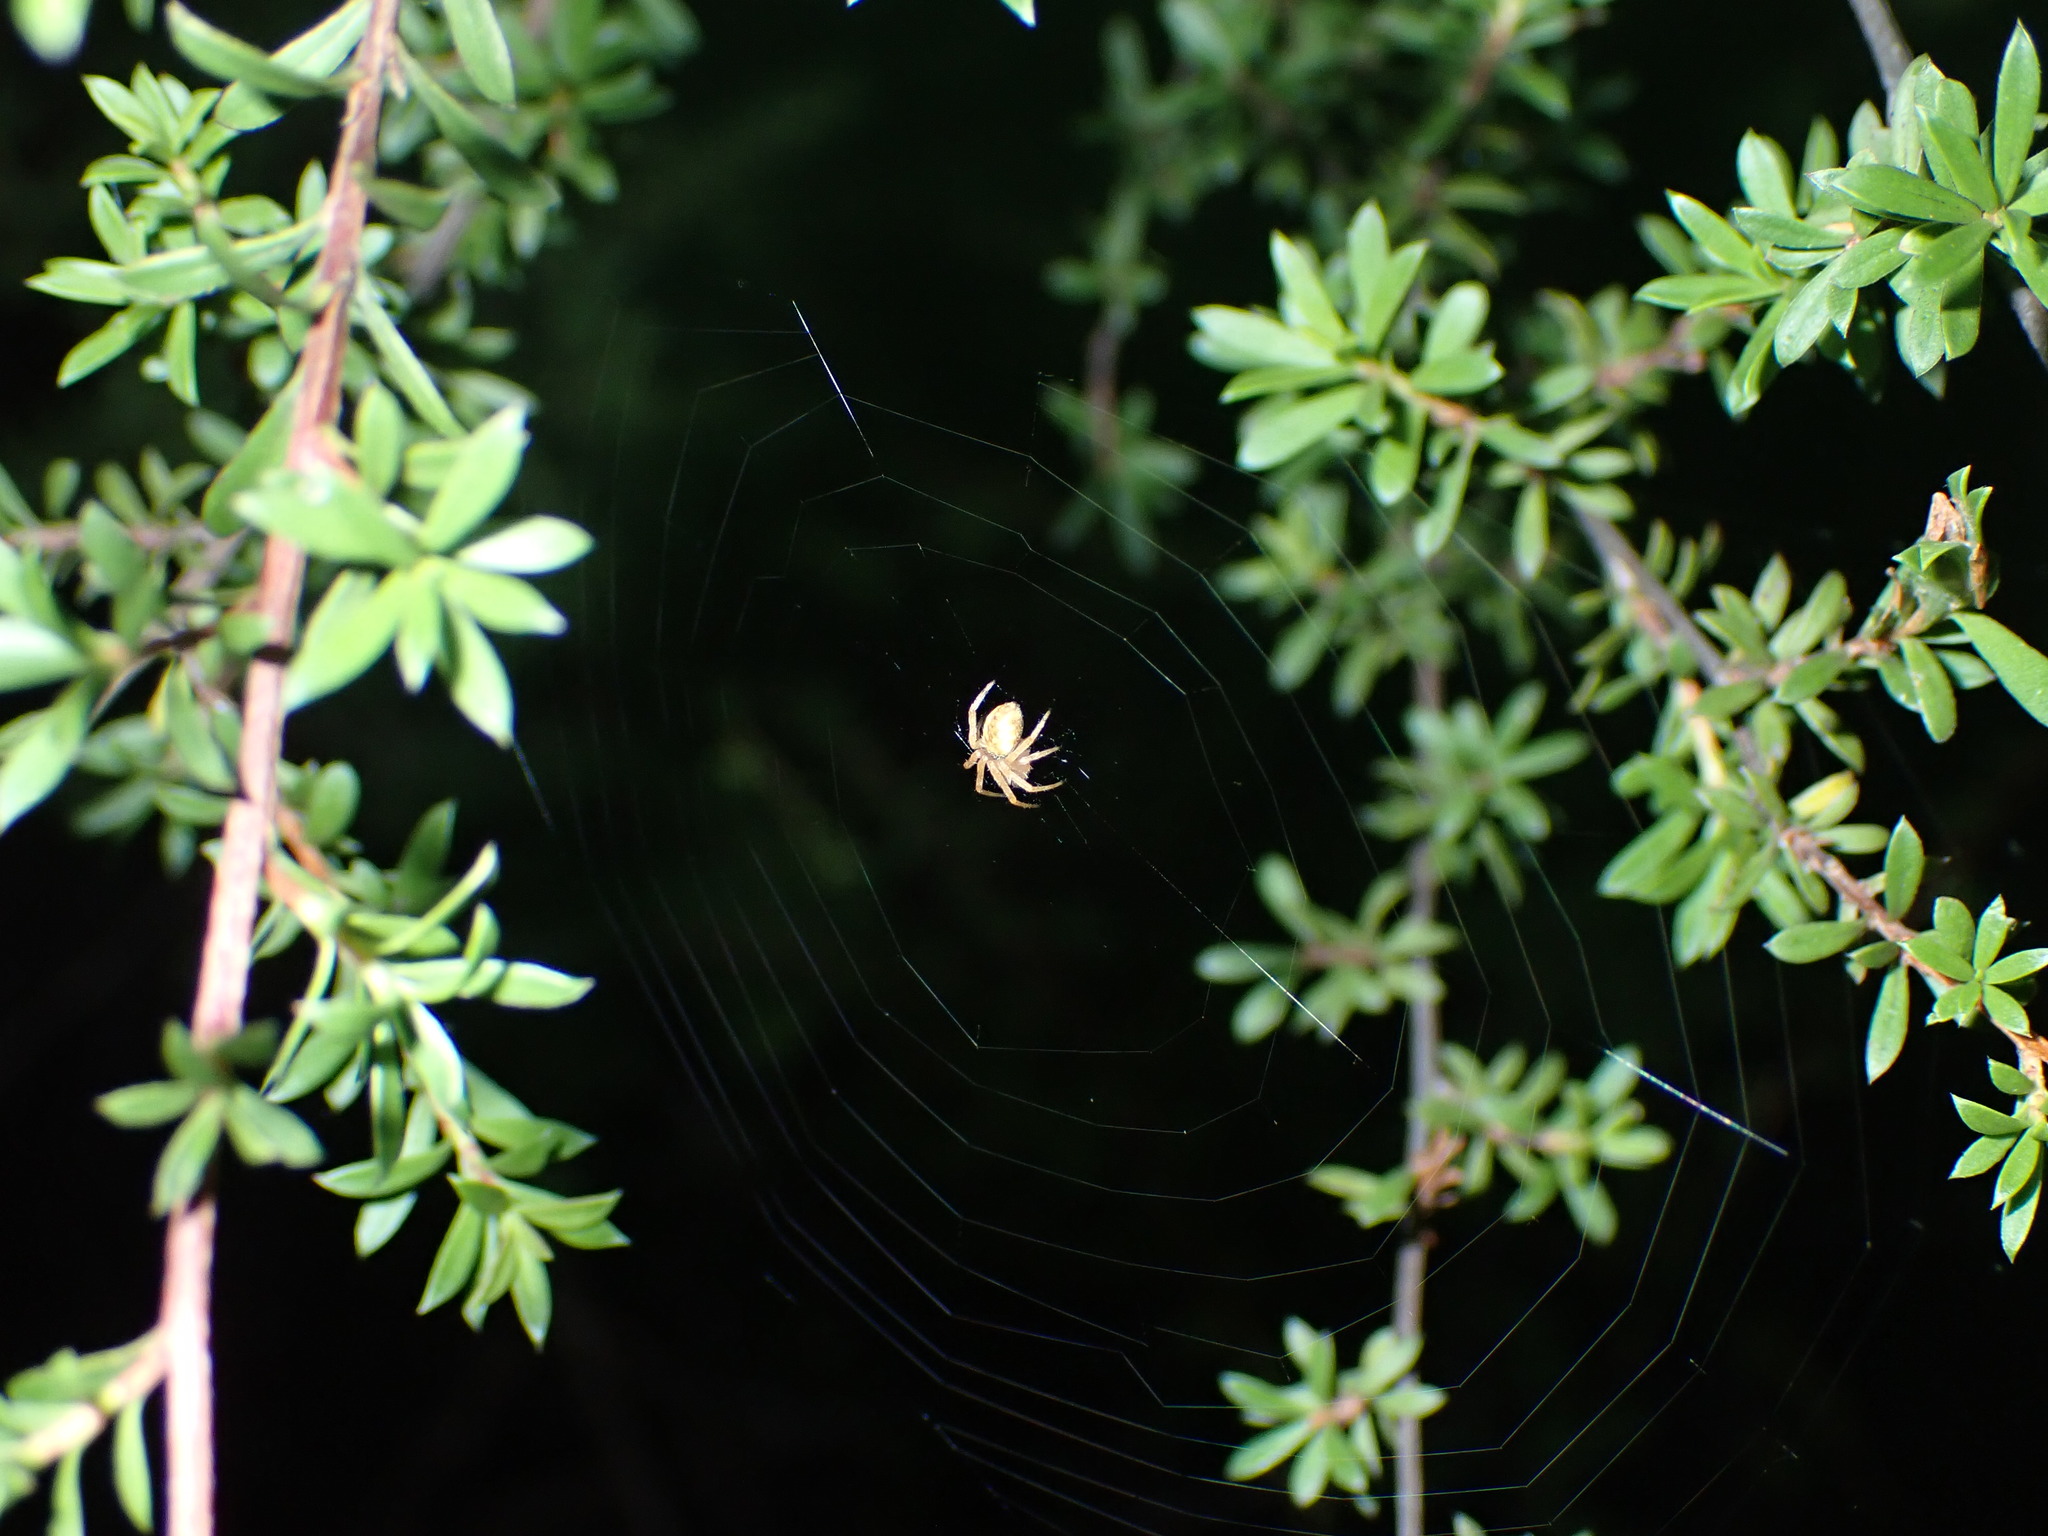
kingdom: Animalia
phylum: Arthropoda
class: Arachnida
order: Araneae
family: Araneidae
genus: Salsa
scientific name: Salsa fuliginata
